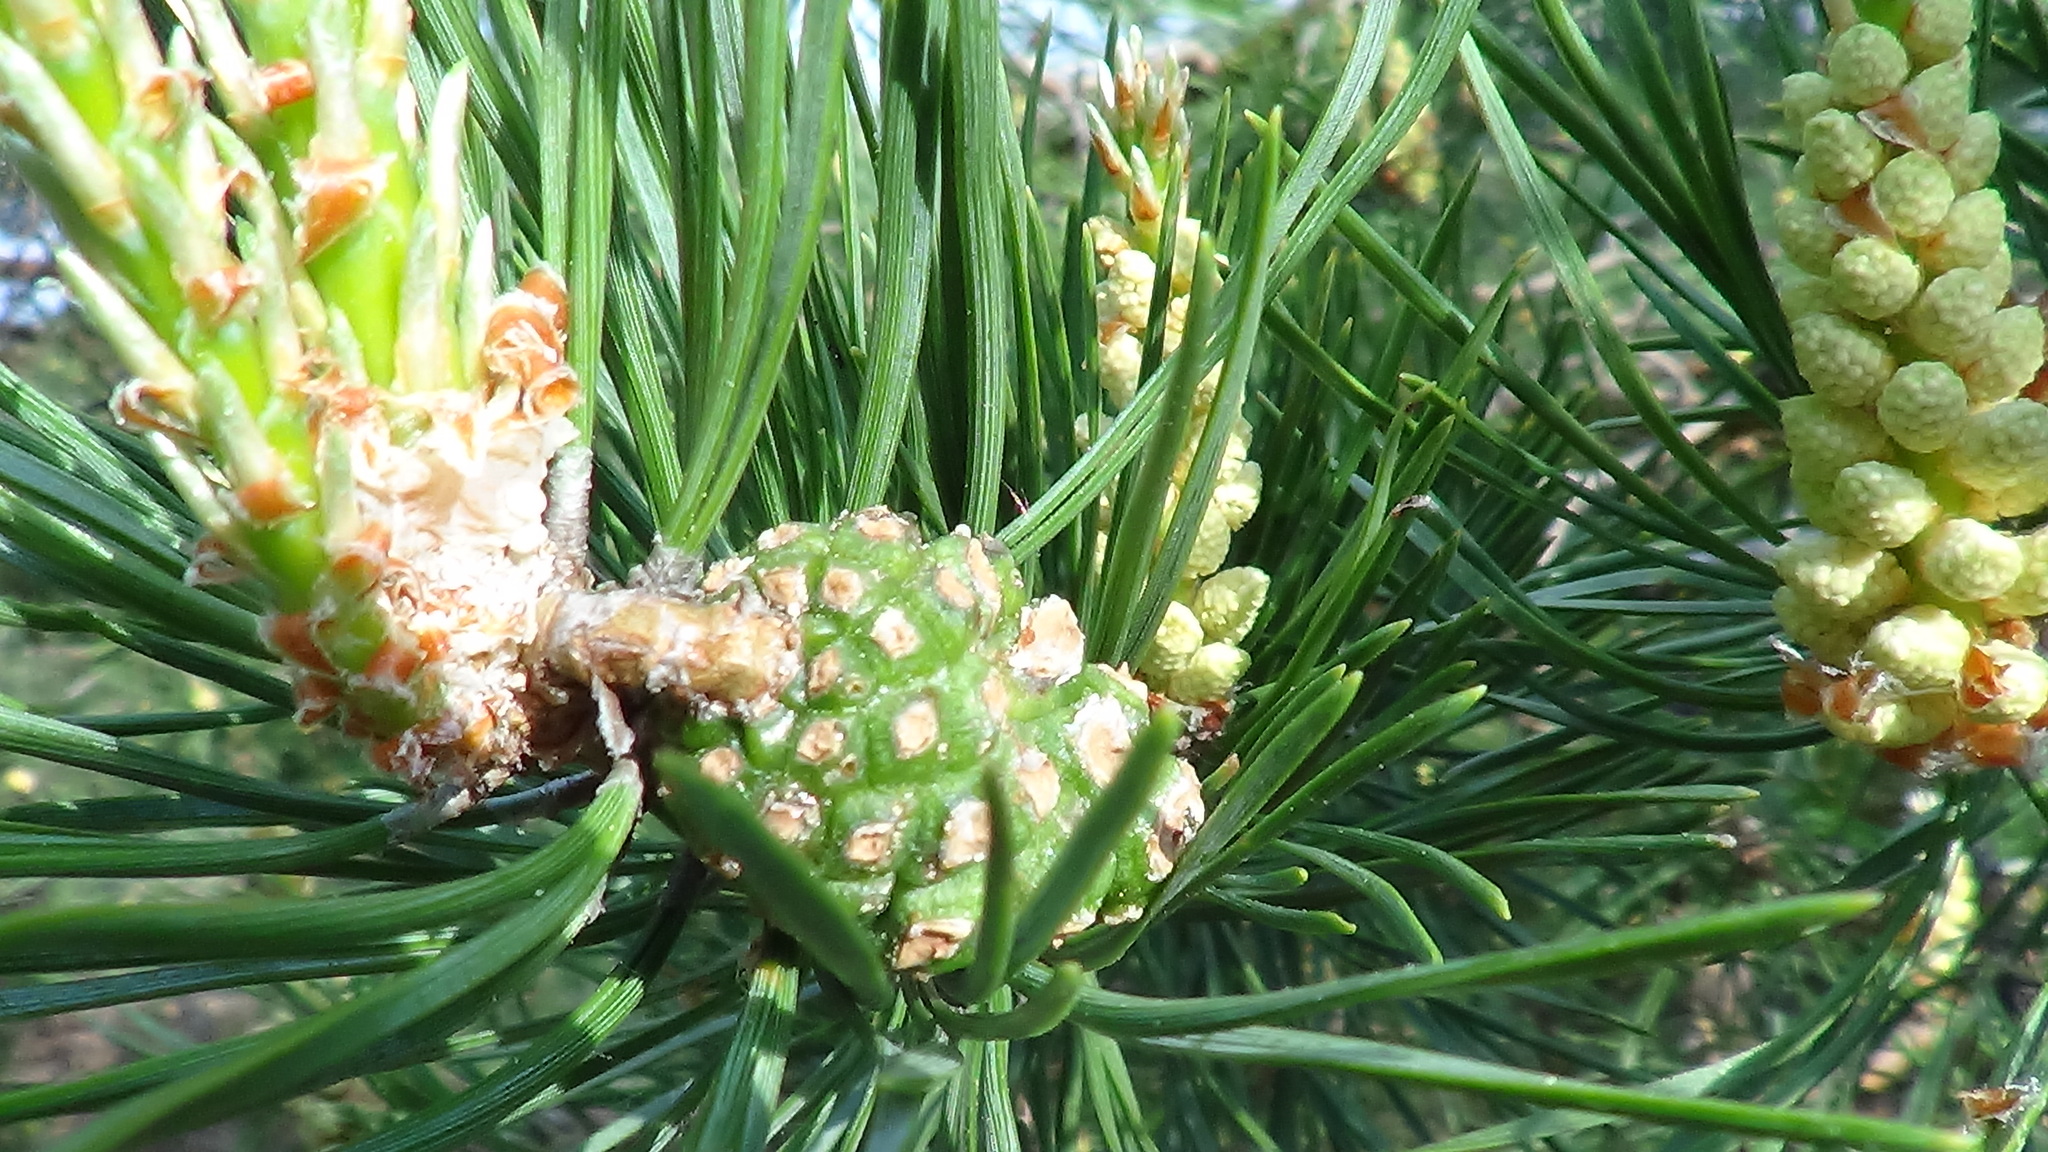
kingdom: Plantae
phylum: Tracheophyta
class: Pinopsida
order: Pinales
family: Pinaceae
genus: Pinus
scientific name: Pinus sylvestris
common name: Scots pine
